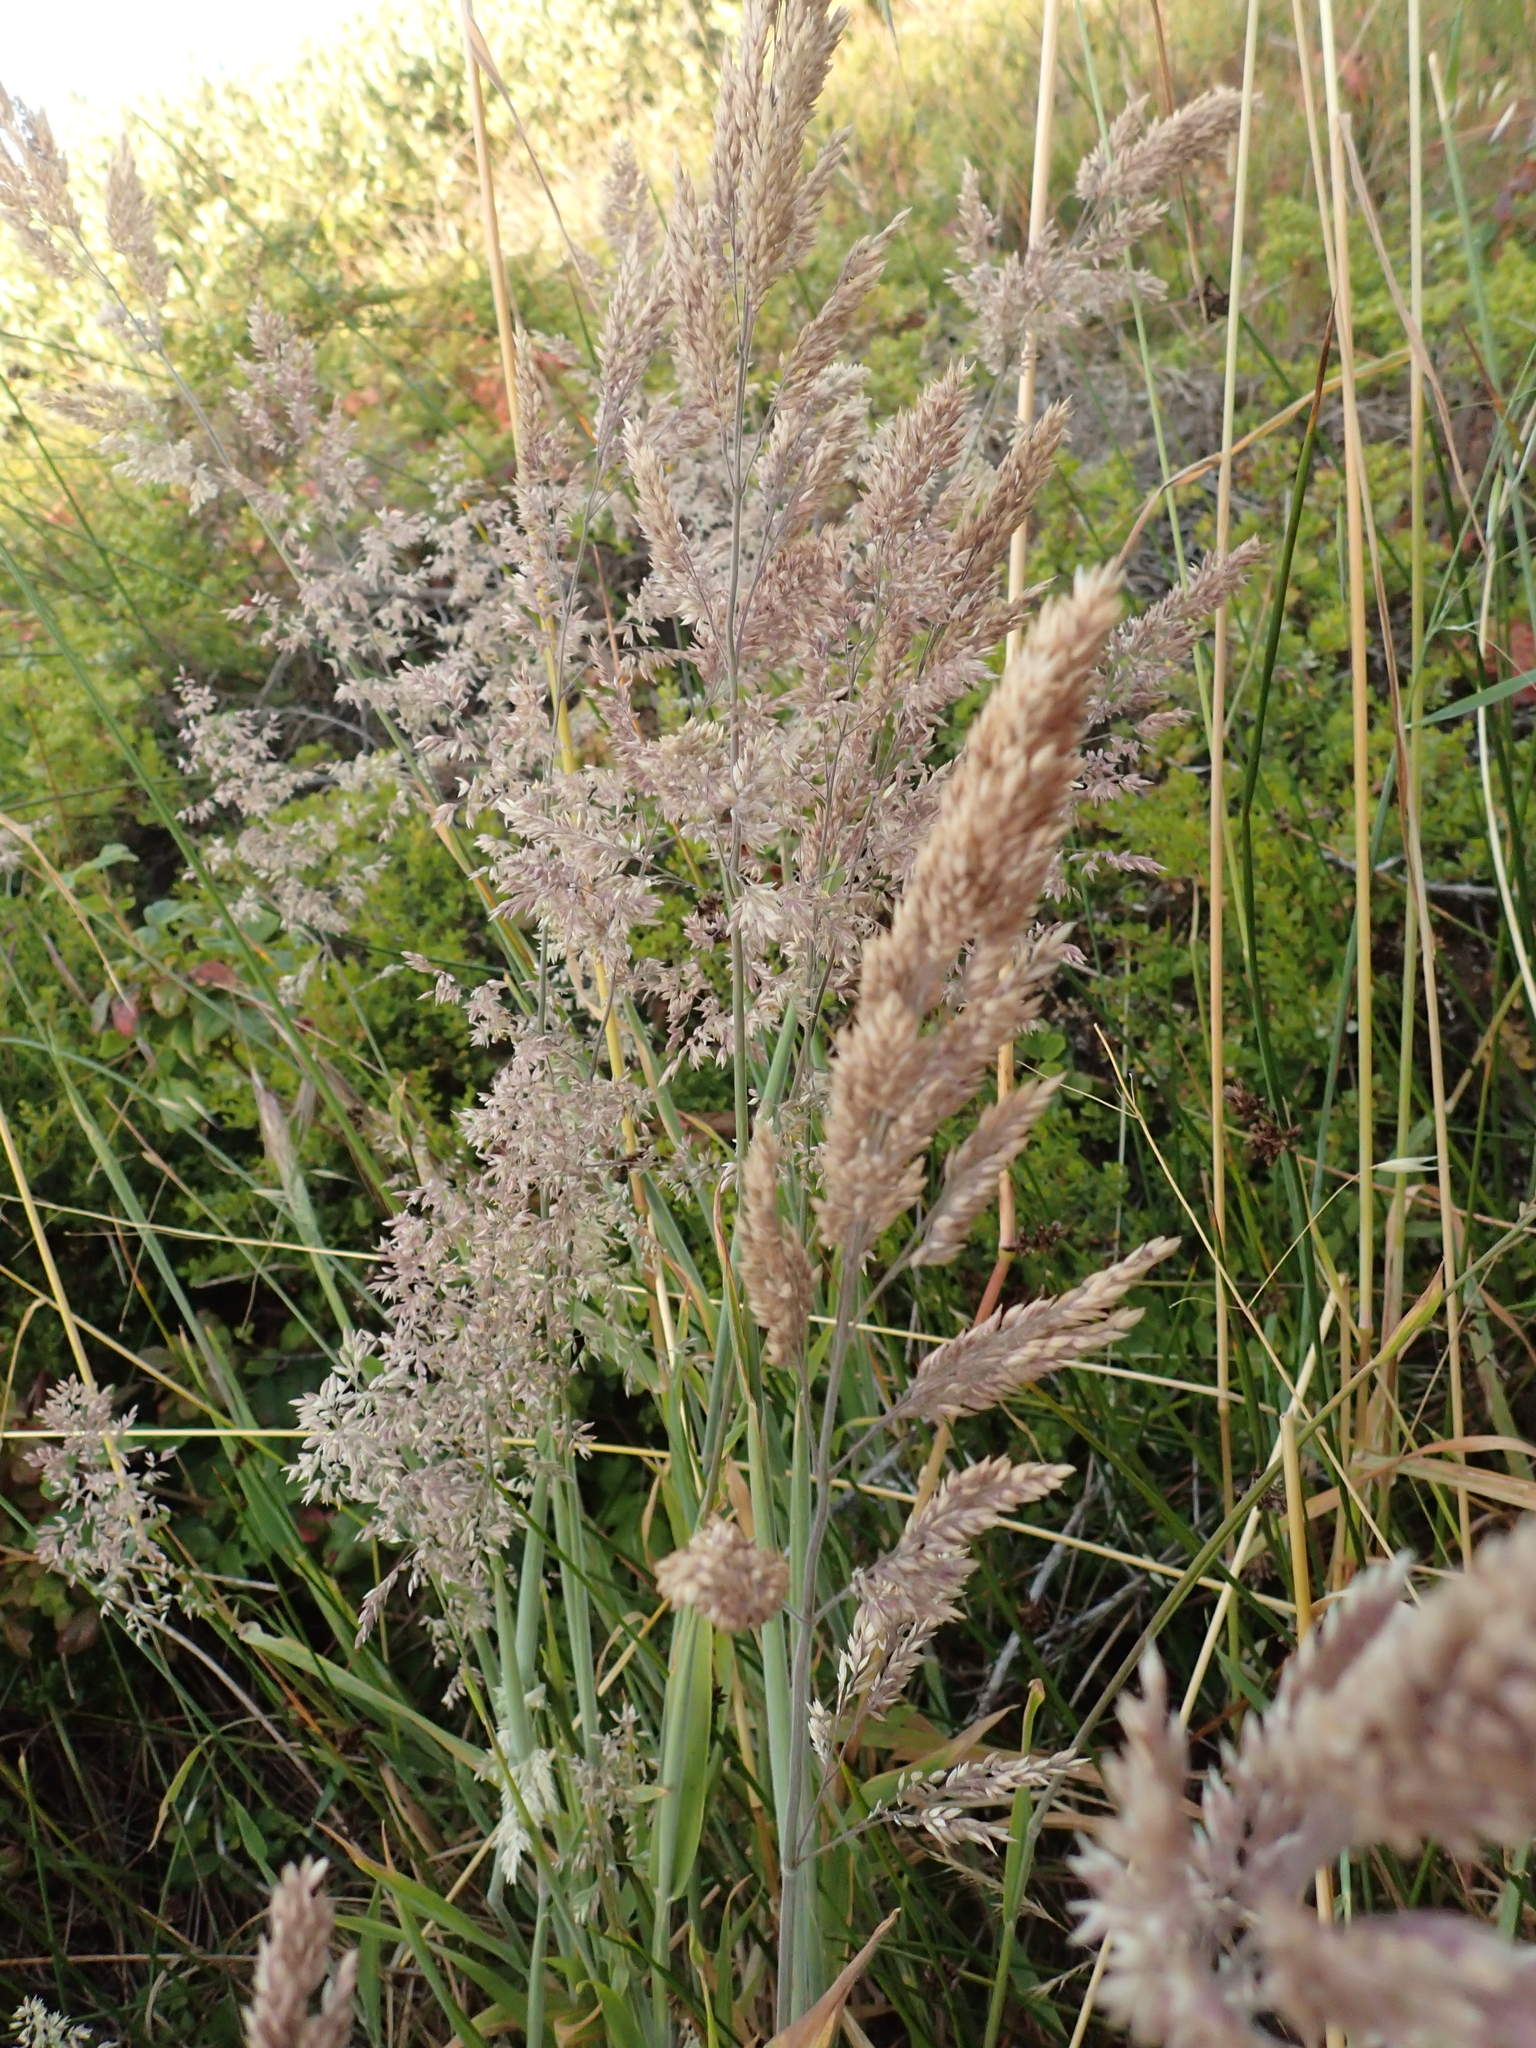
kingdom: Plantae
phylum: Tracheophyta
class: Liliopsida
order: Poales
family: Poaceae
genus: Holcus
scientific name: Holcus lanatus
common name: Yorkshire-fog
